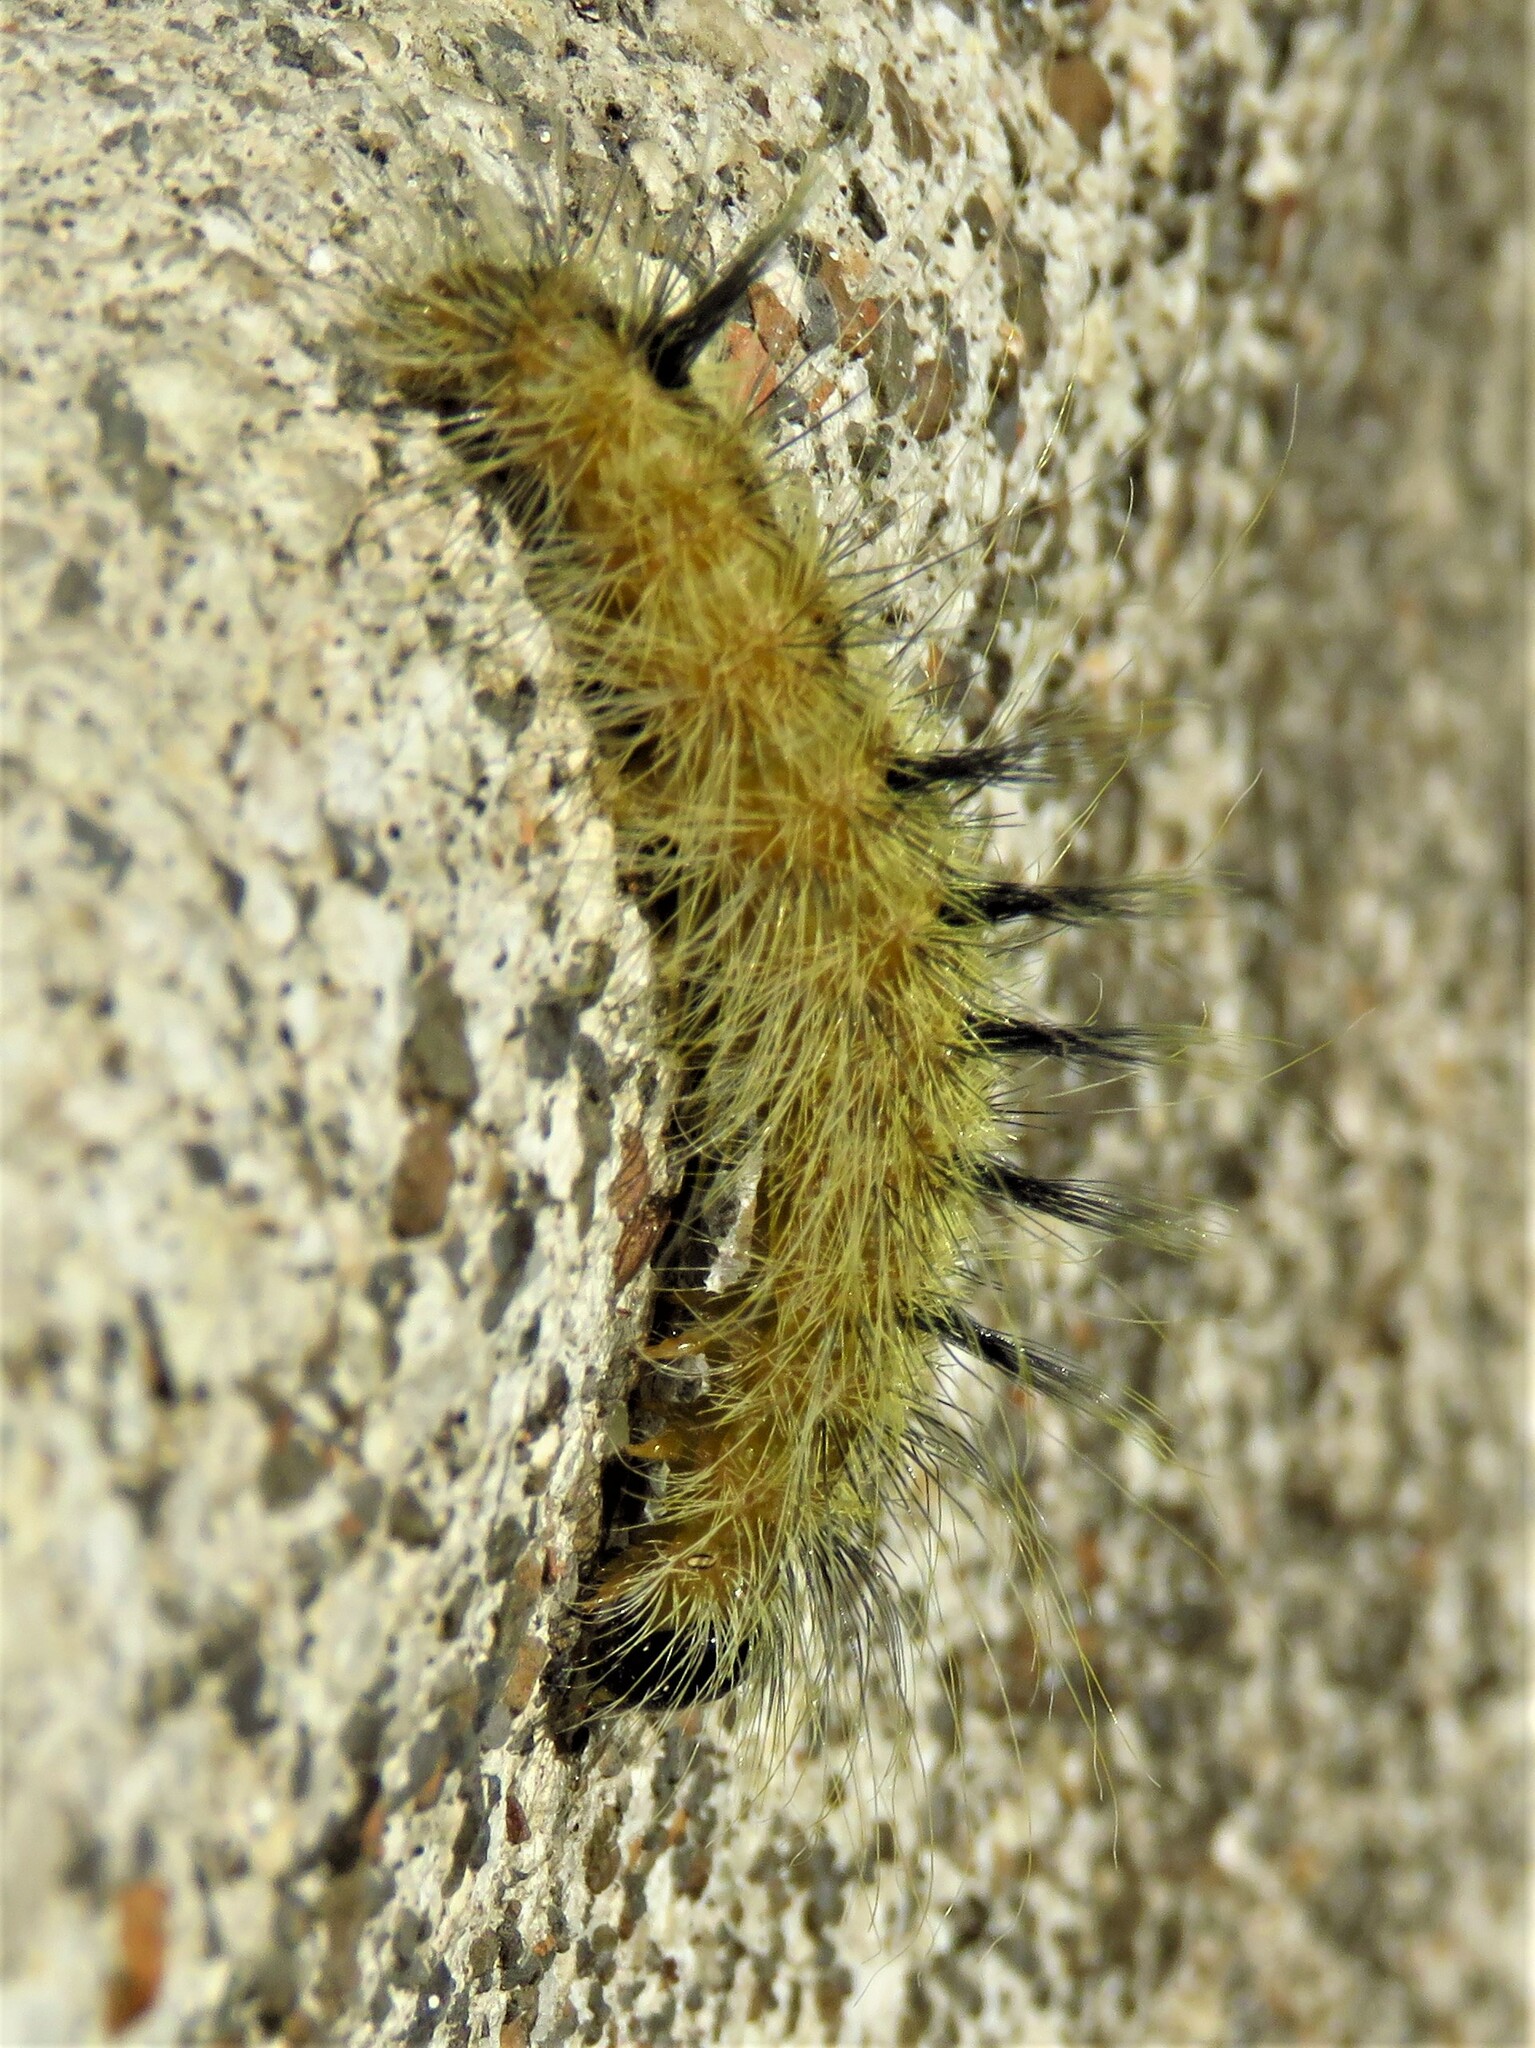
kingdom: Animalia
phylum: Arthropoda
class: Insecta
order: Lepidoptera
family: Noctuidae
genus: Acronicta
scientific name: Acronicta rubricoma
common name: Hackberry dagger
